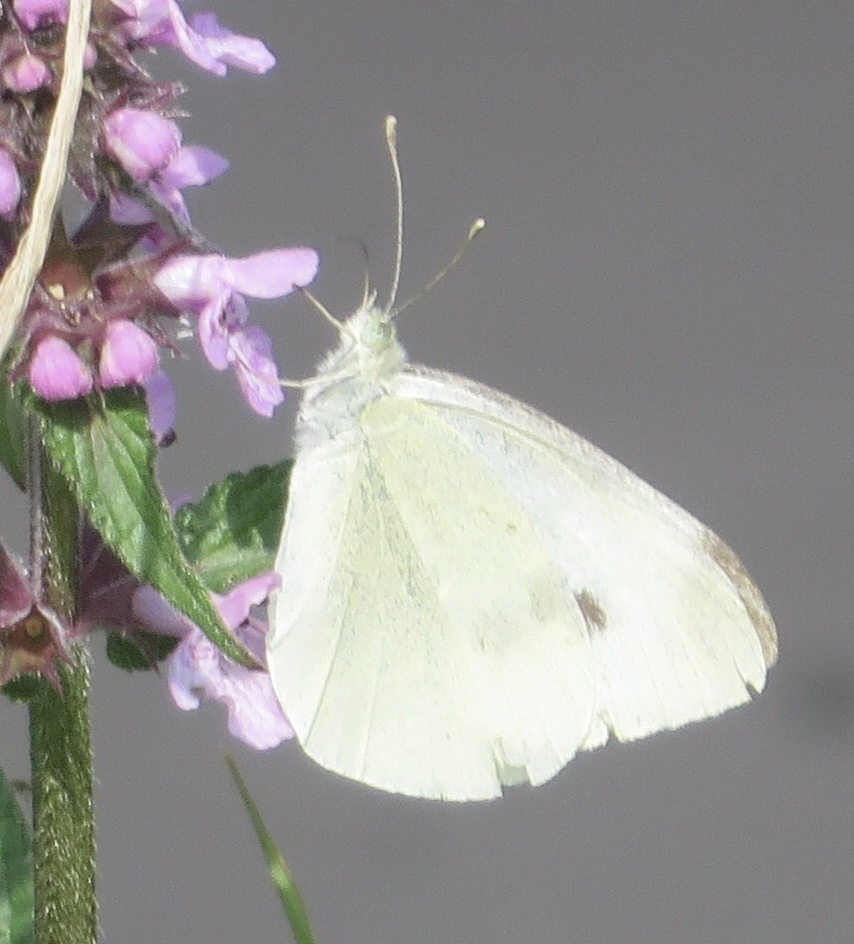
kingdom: Animalia
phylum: Arthropoda
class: Insecta
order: Lepidoptera
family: Pieridae
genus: Pieris
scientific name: Pieris rapae
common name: Small white
